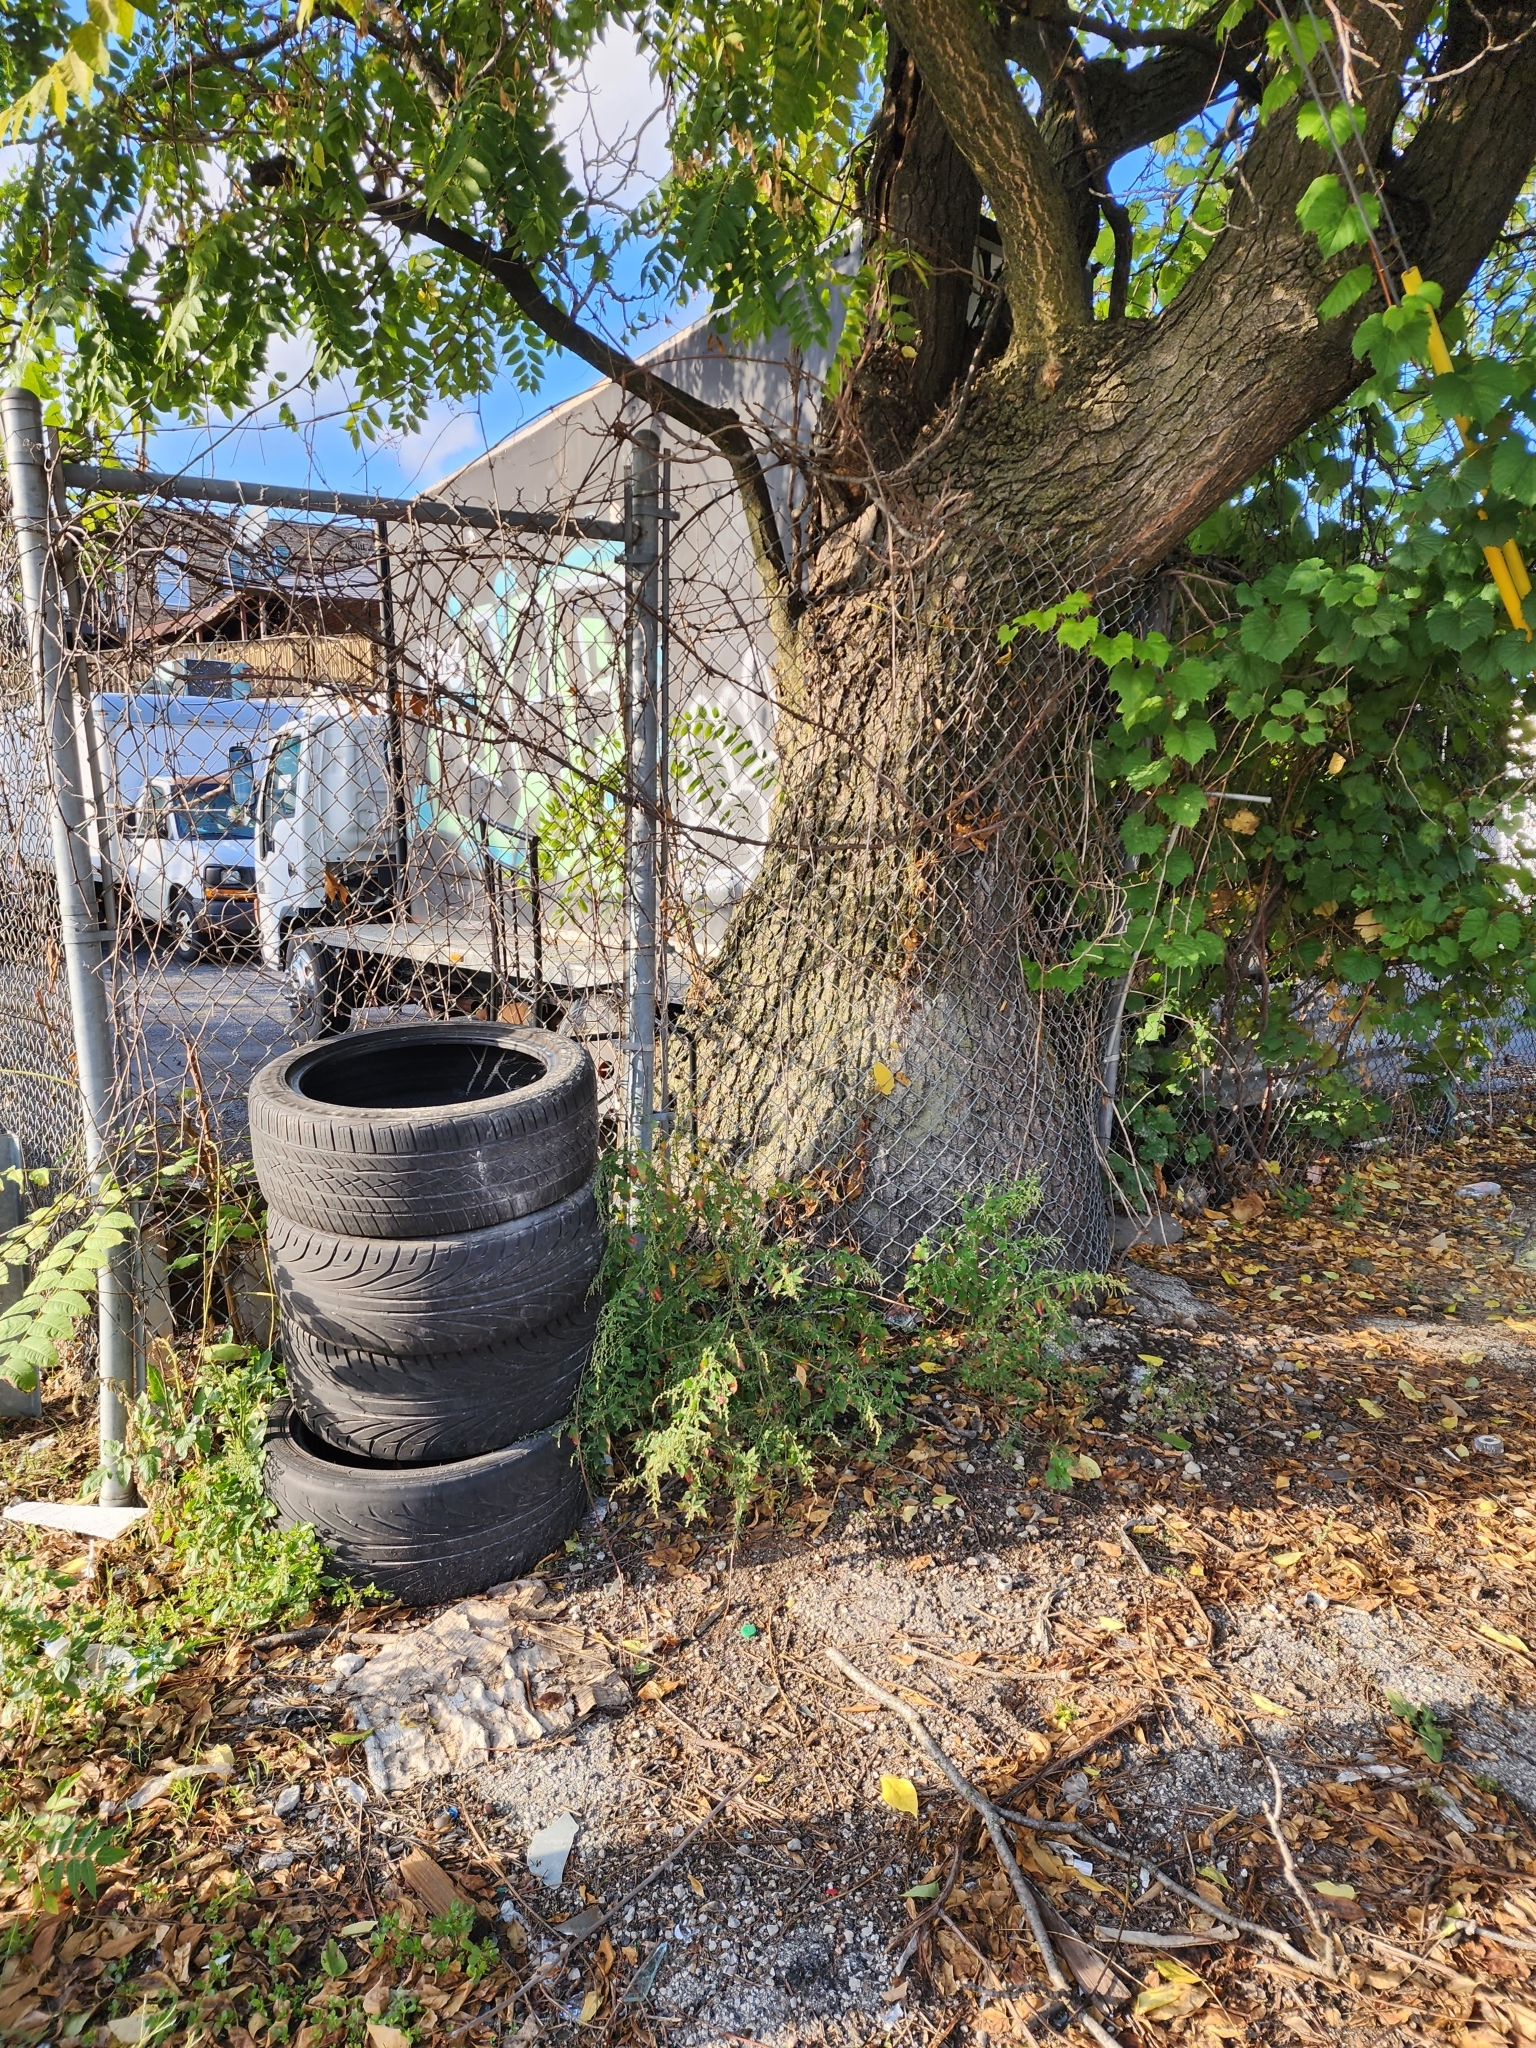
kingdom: Plantae
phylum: Tracheophyta
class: Magnoliopsida
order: Sapindales
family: Simaroubaceae
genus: Ailanthus
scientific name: Ailanthus altissima
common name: Tree-of-heaven
